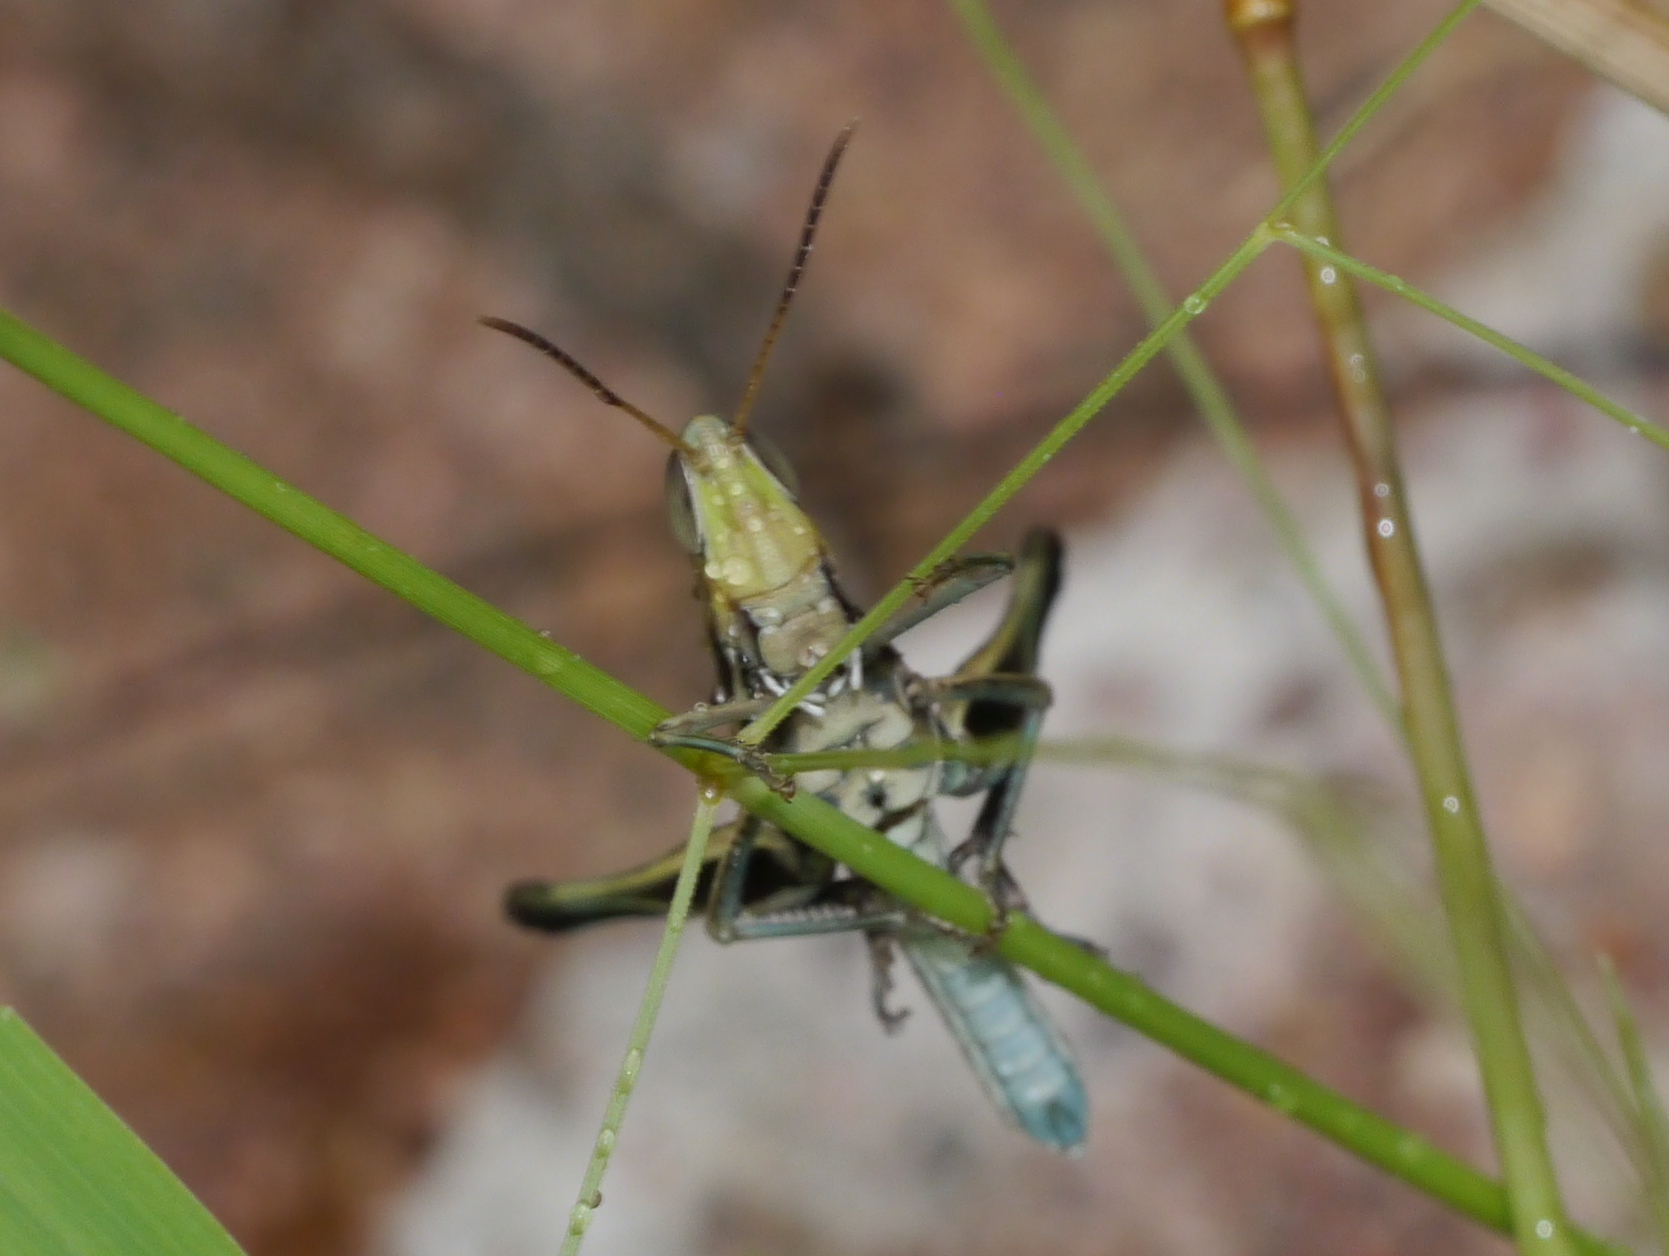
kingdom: Animalia
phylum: Arthropoda
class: Insecta
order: Orthoptera
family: Acrididae
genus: Syrbula
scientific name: Syrbula montezuma
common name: Montezuma's grasshopper
